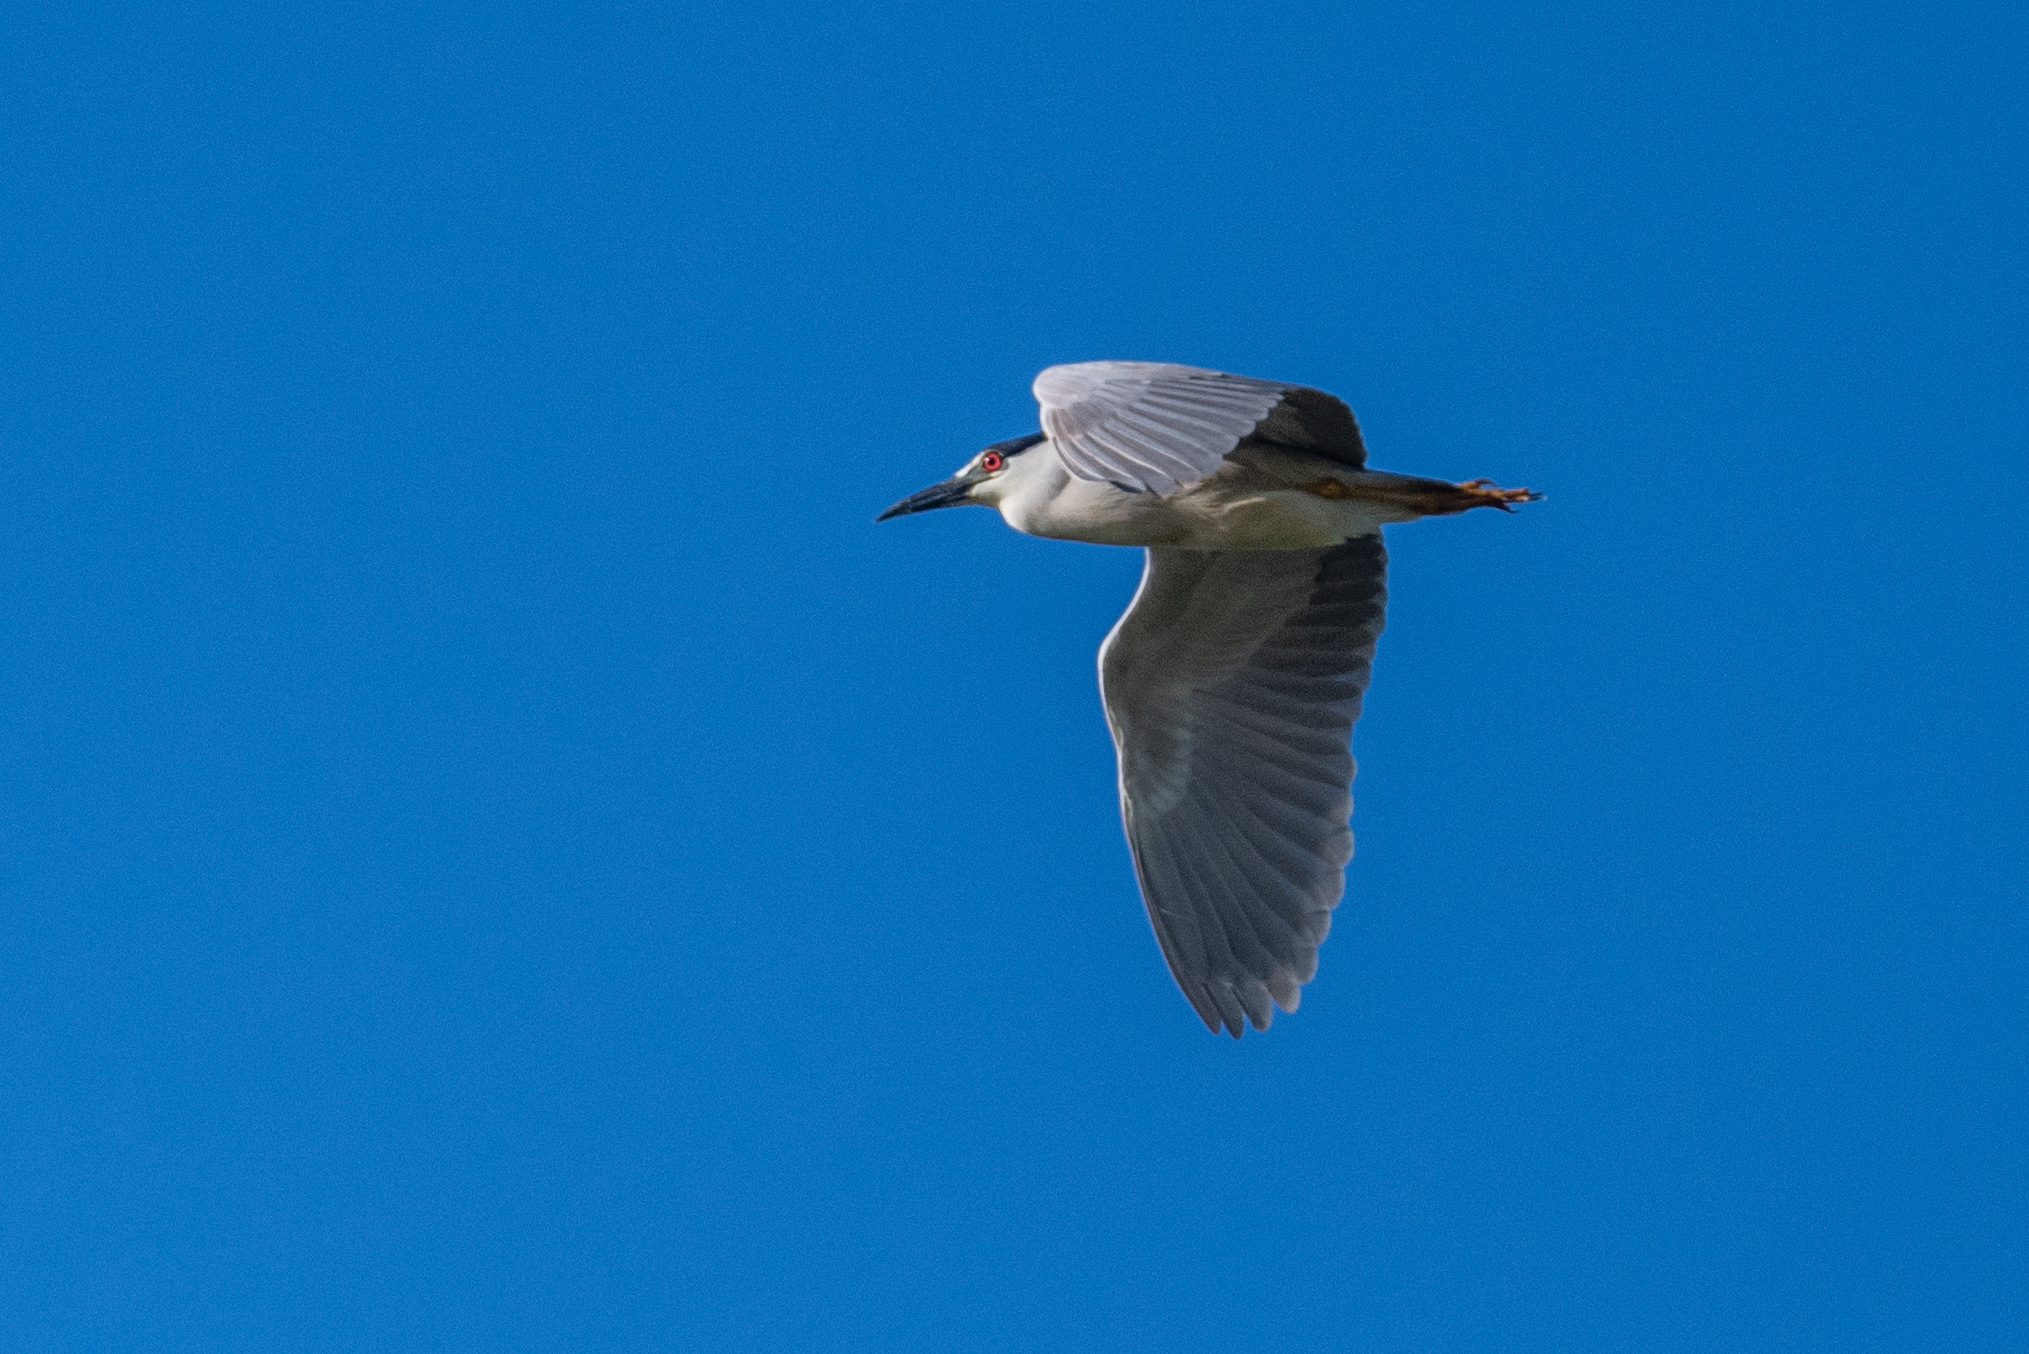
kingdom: Animalia
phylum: Chordata
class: Aves
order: Pelecaniformes
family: Ardeidae
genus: Nycticorax
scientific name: Nycticorax nycticorax
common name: Black-crowned night heron
